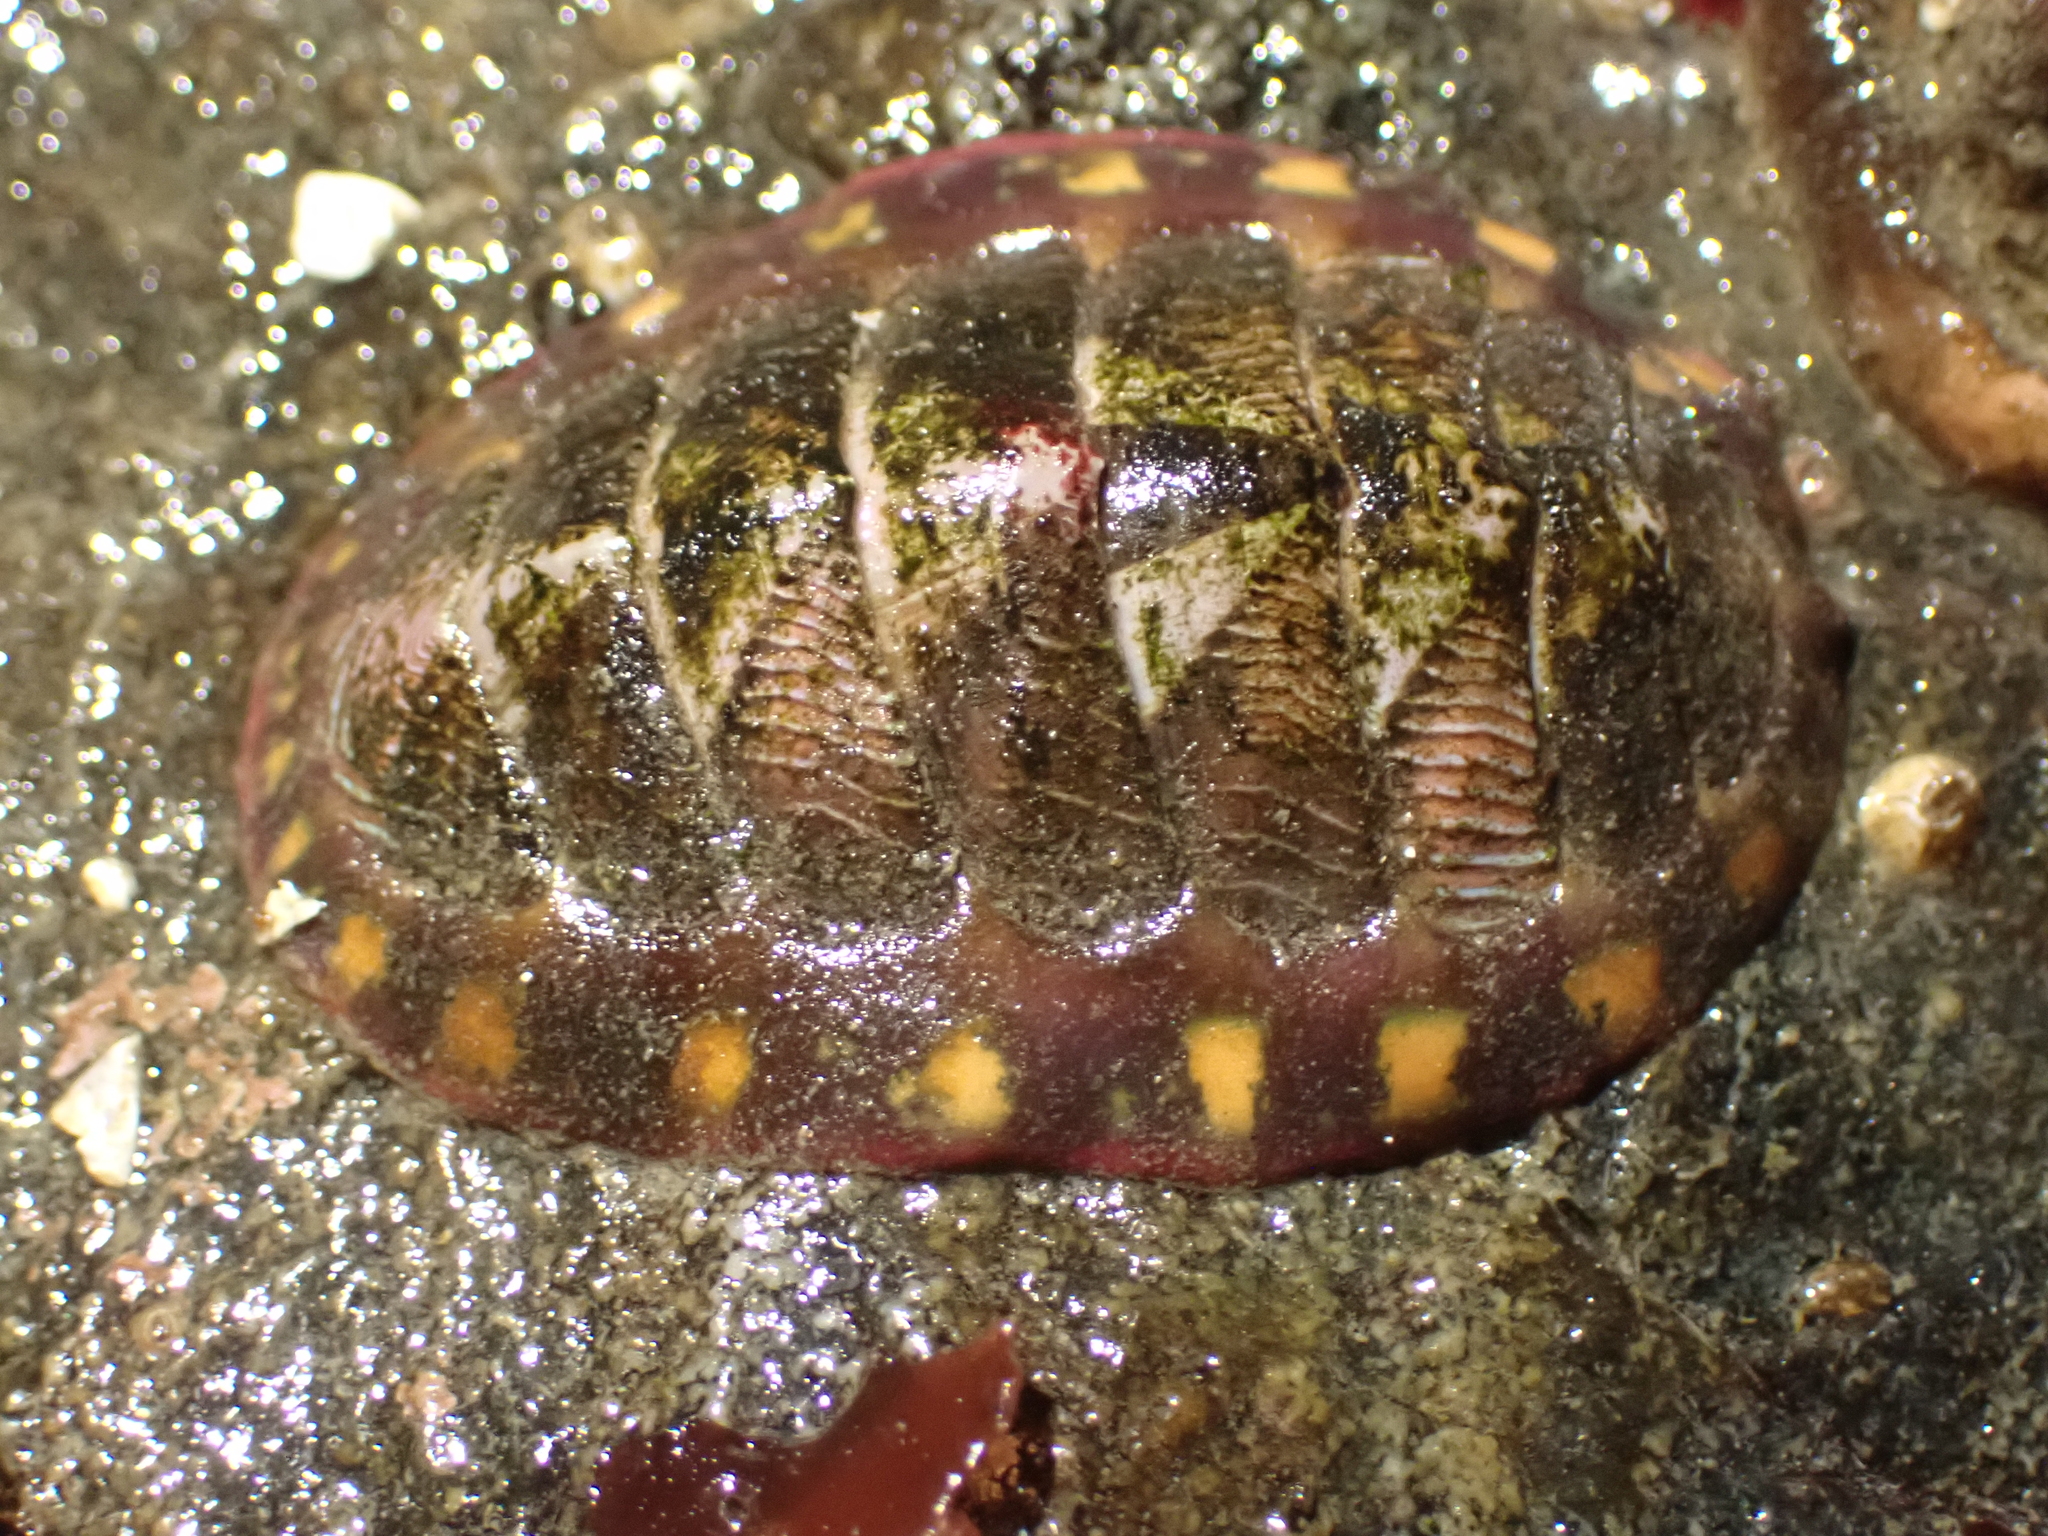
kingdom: Animalia
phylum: Mollusca
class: Polyplacophora
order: Chitonida
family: Tonicellidae
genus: Tonicella
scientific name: Tonicella lineata
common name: Lined chiton
